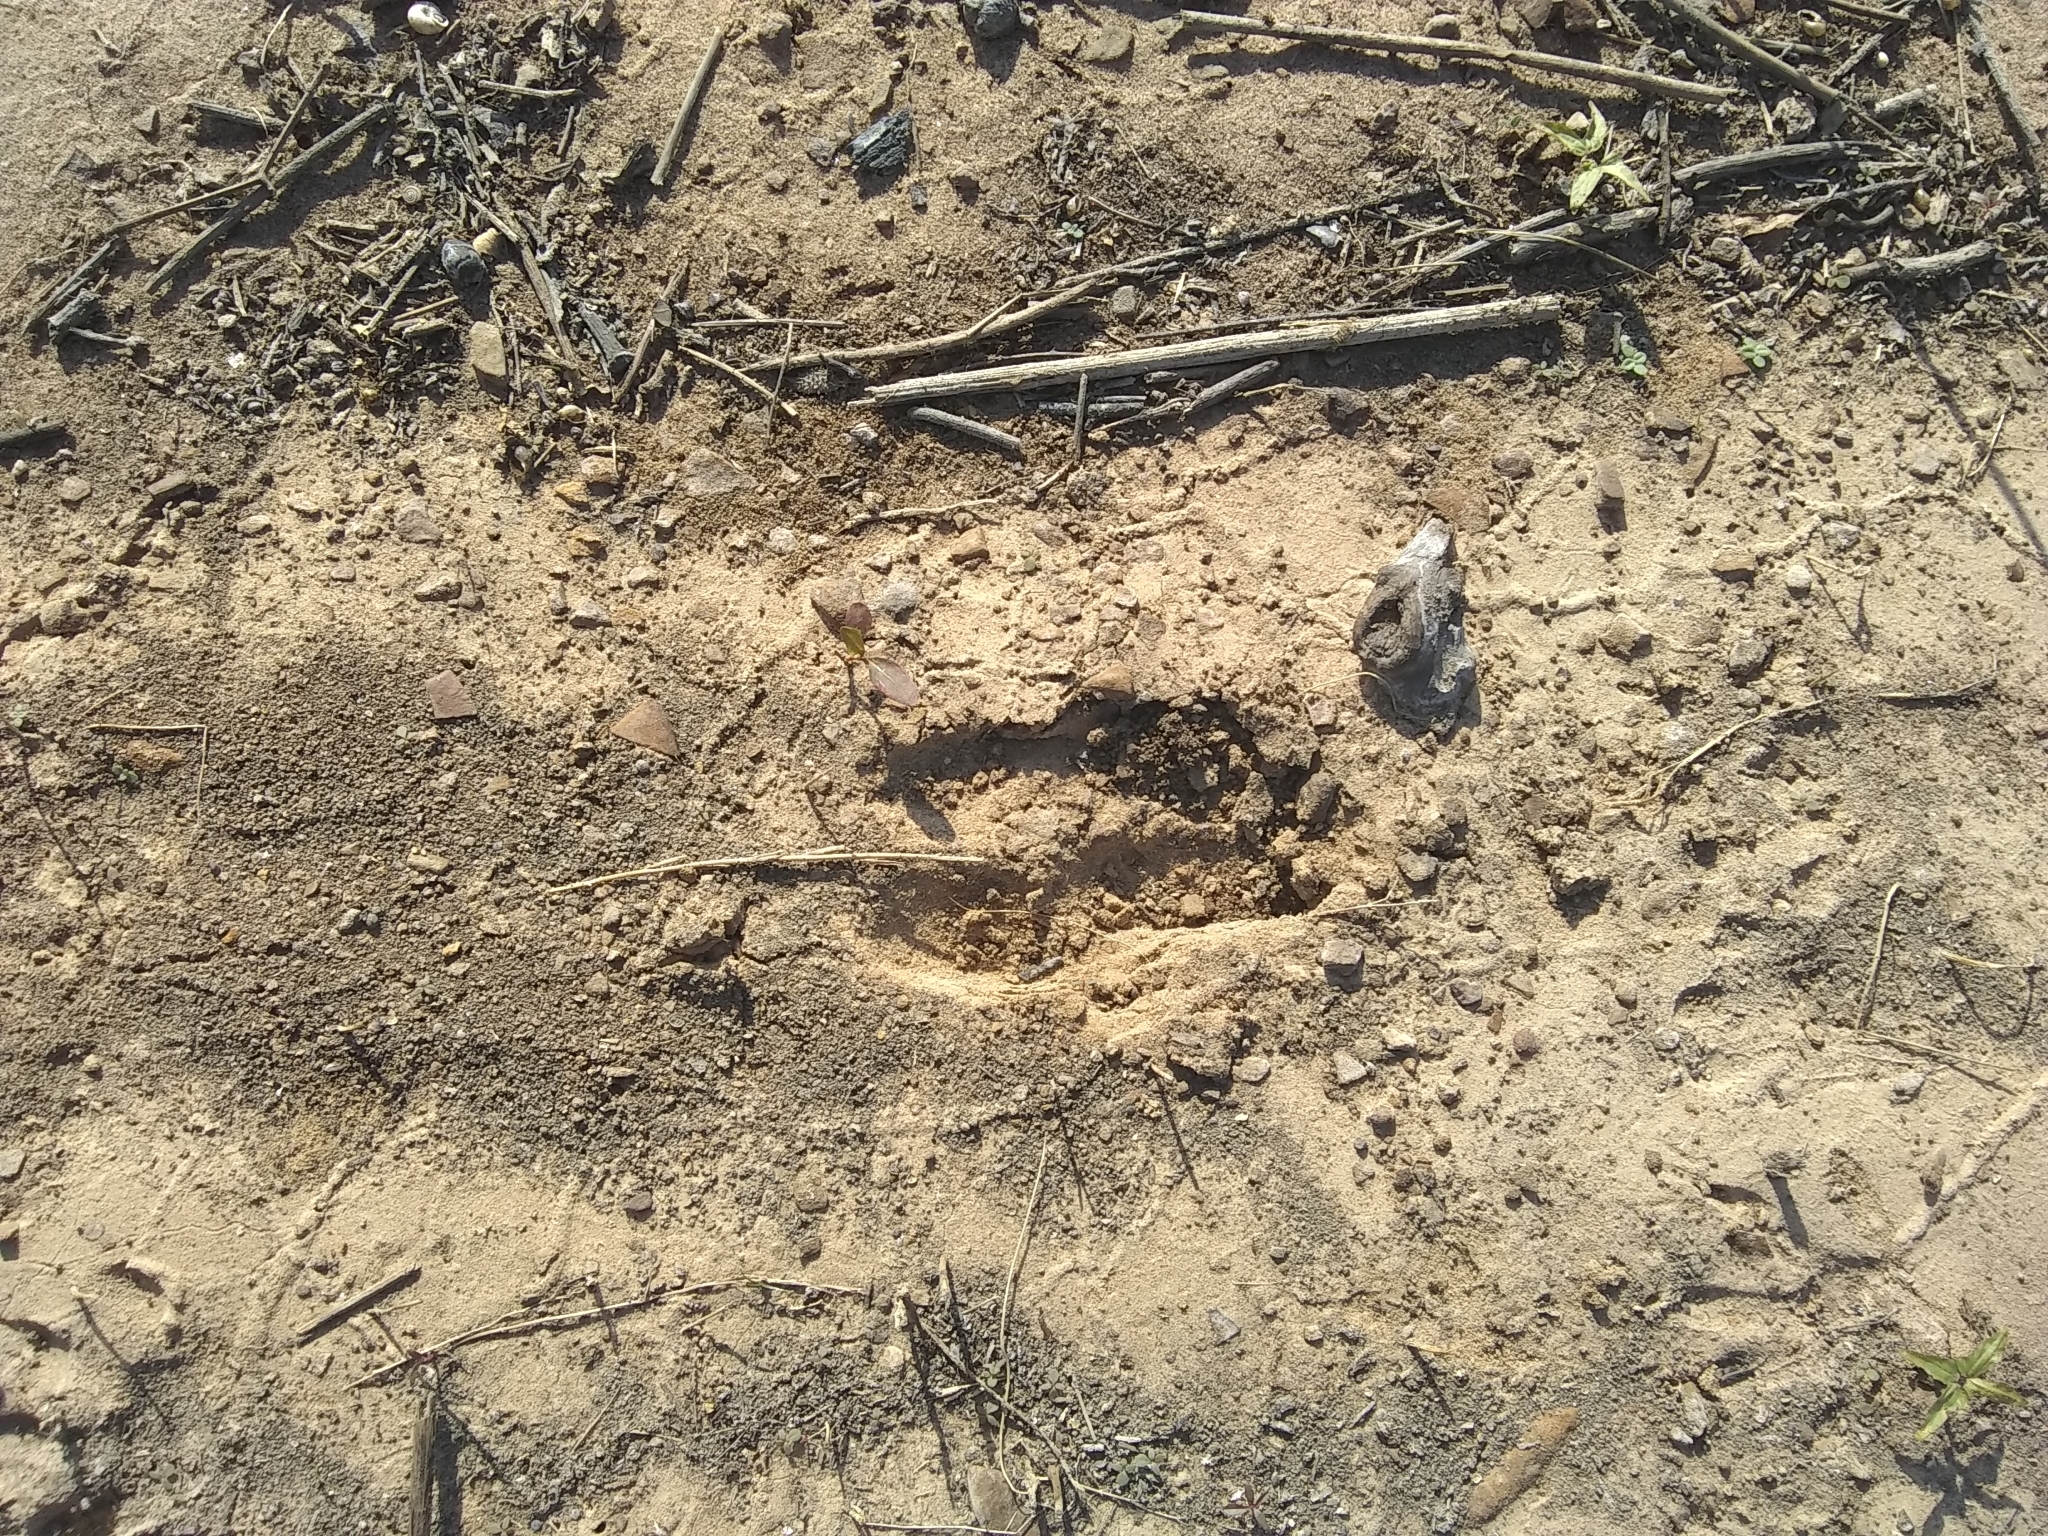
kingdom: Animalia
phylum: Chordata
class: Mammalia
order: Artiodactyla
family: Cervidae
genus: Odocoileus
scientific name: Odocoileus virginianus
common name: White-tailed deer
